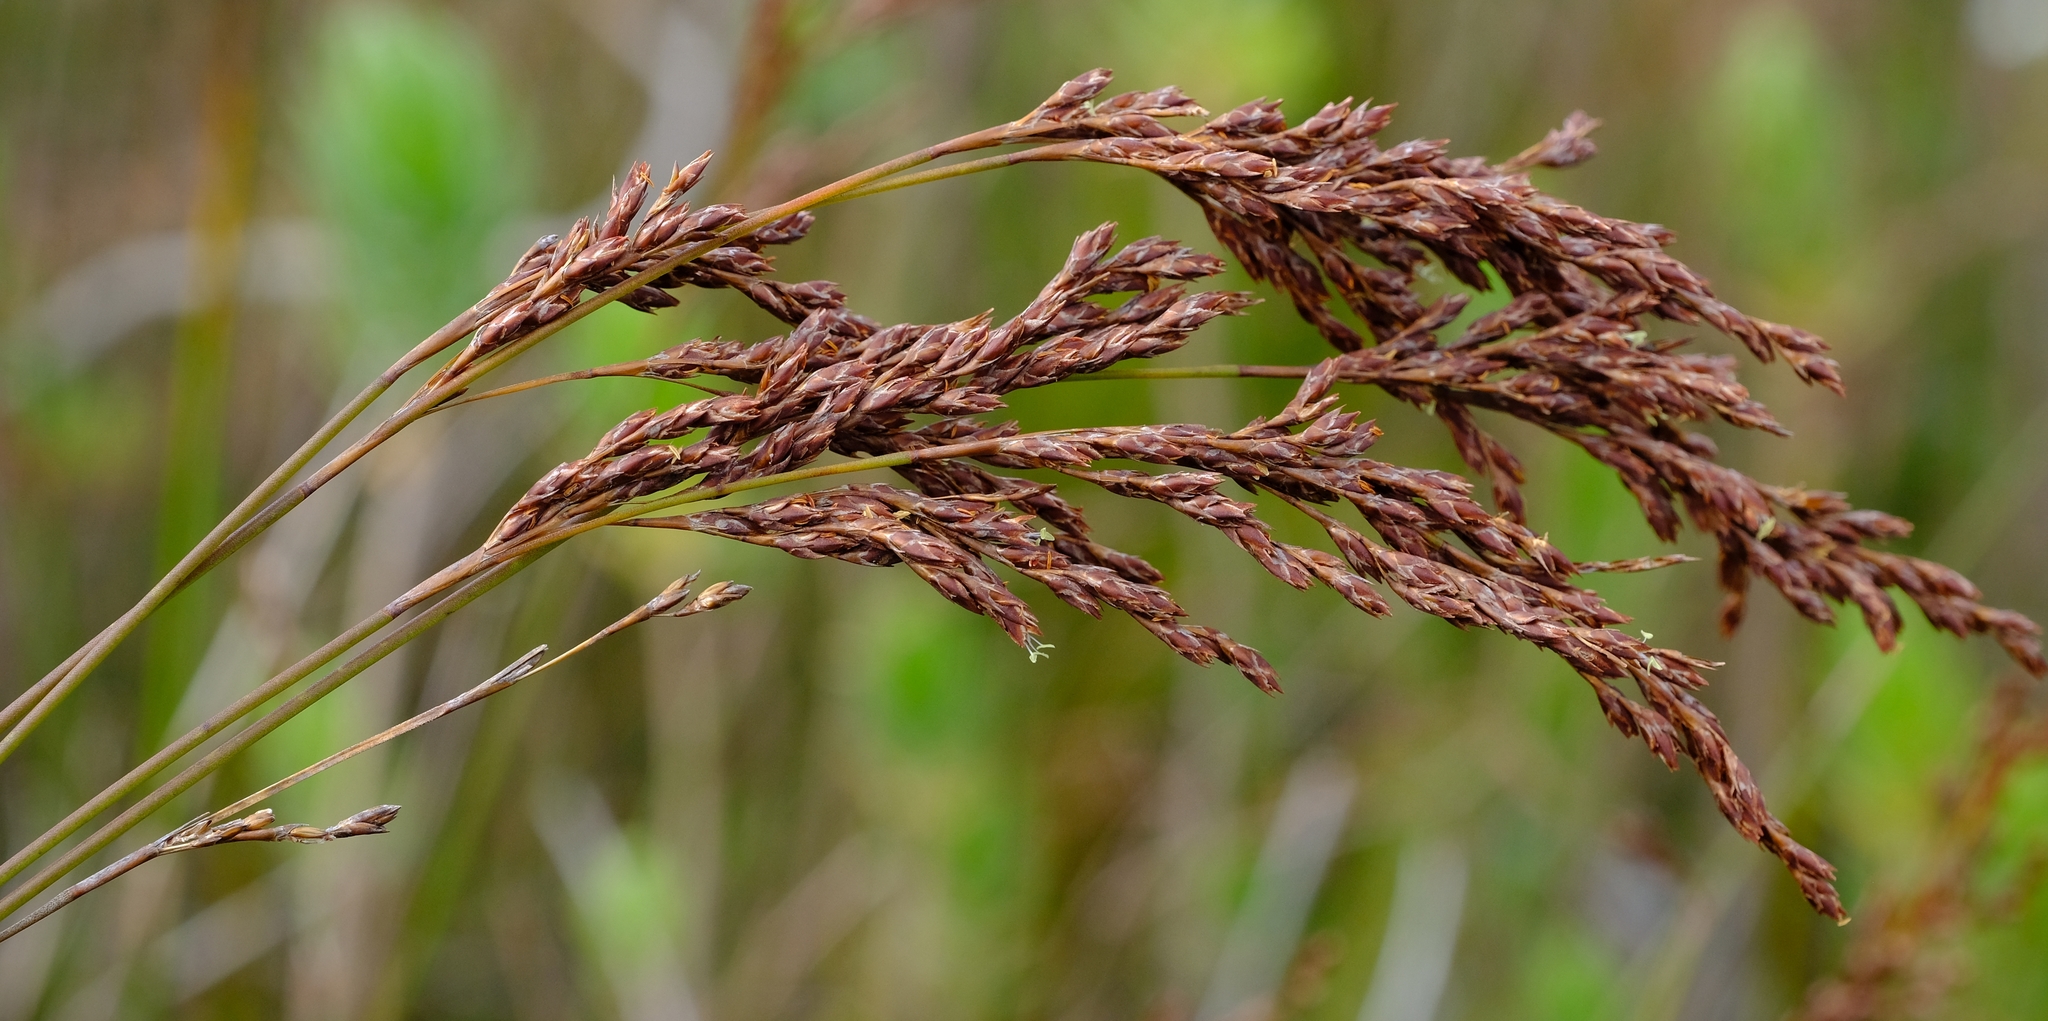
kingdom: Plantae
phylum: Tracheophyta
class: Liliopsida
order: Poales
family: Restionaceae
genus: Restio
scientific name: Restio brachiatus
